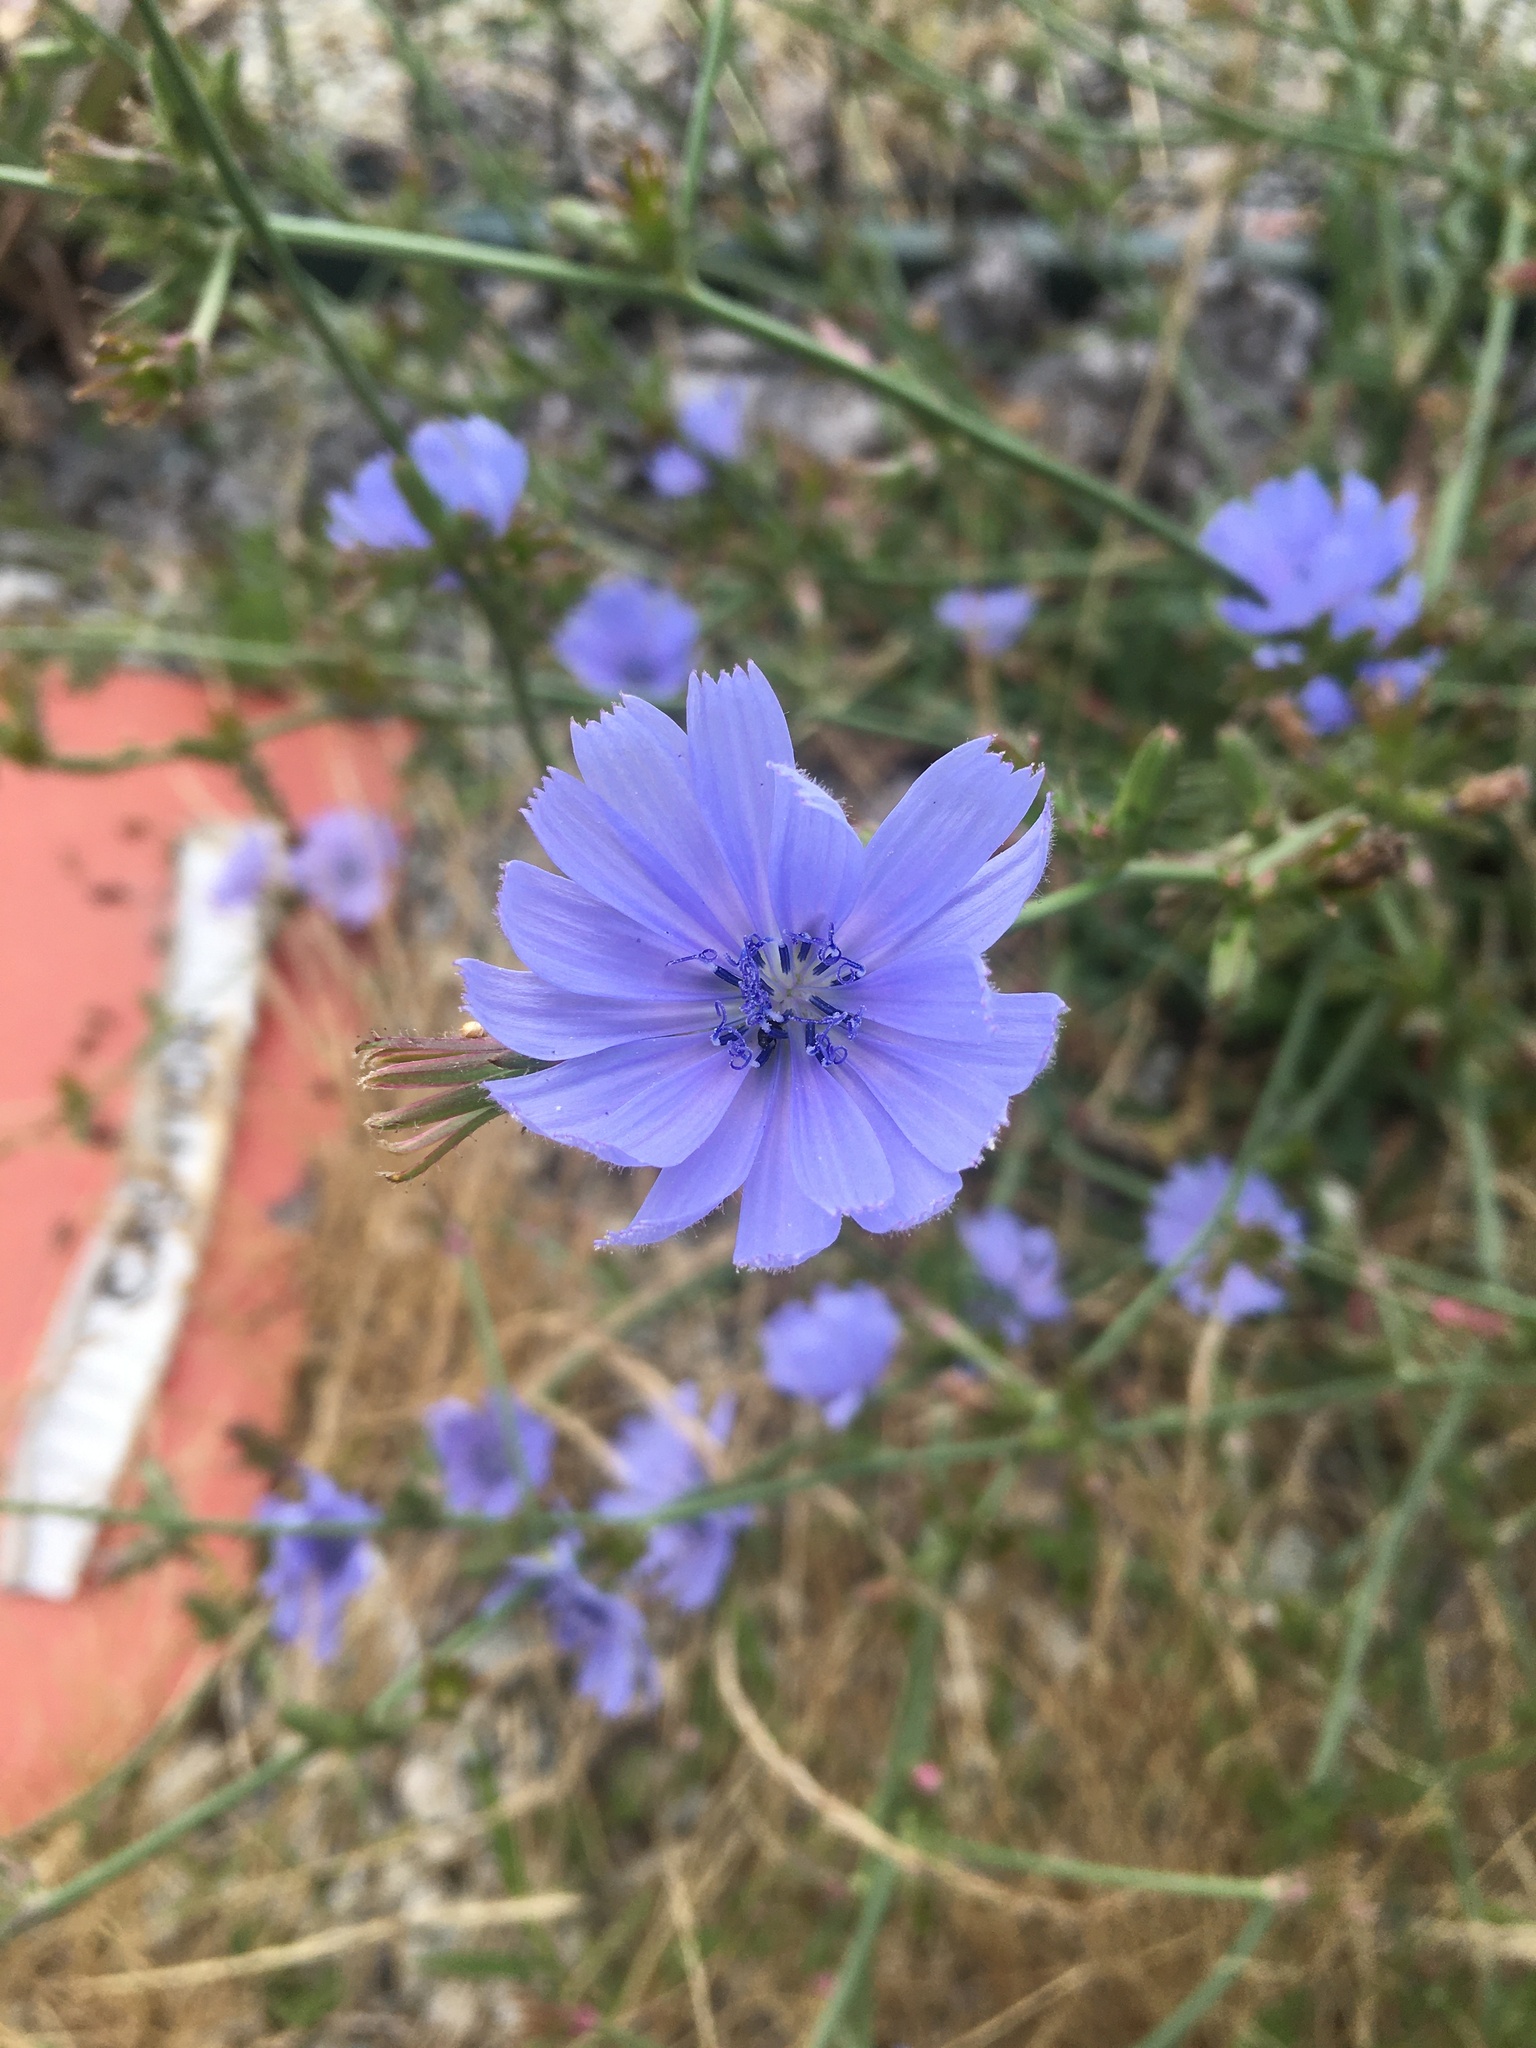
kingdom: Plantae
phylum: Tracheophyta
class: Magnoliopsida
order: Asterales
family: Asteraceae
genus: Cichorium
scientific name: Cichorium intybus
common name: Chicory
